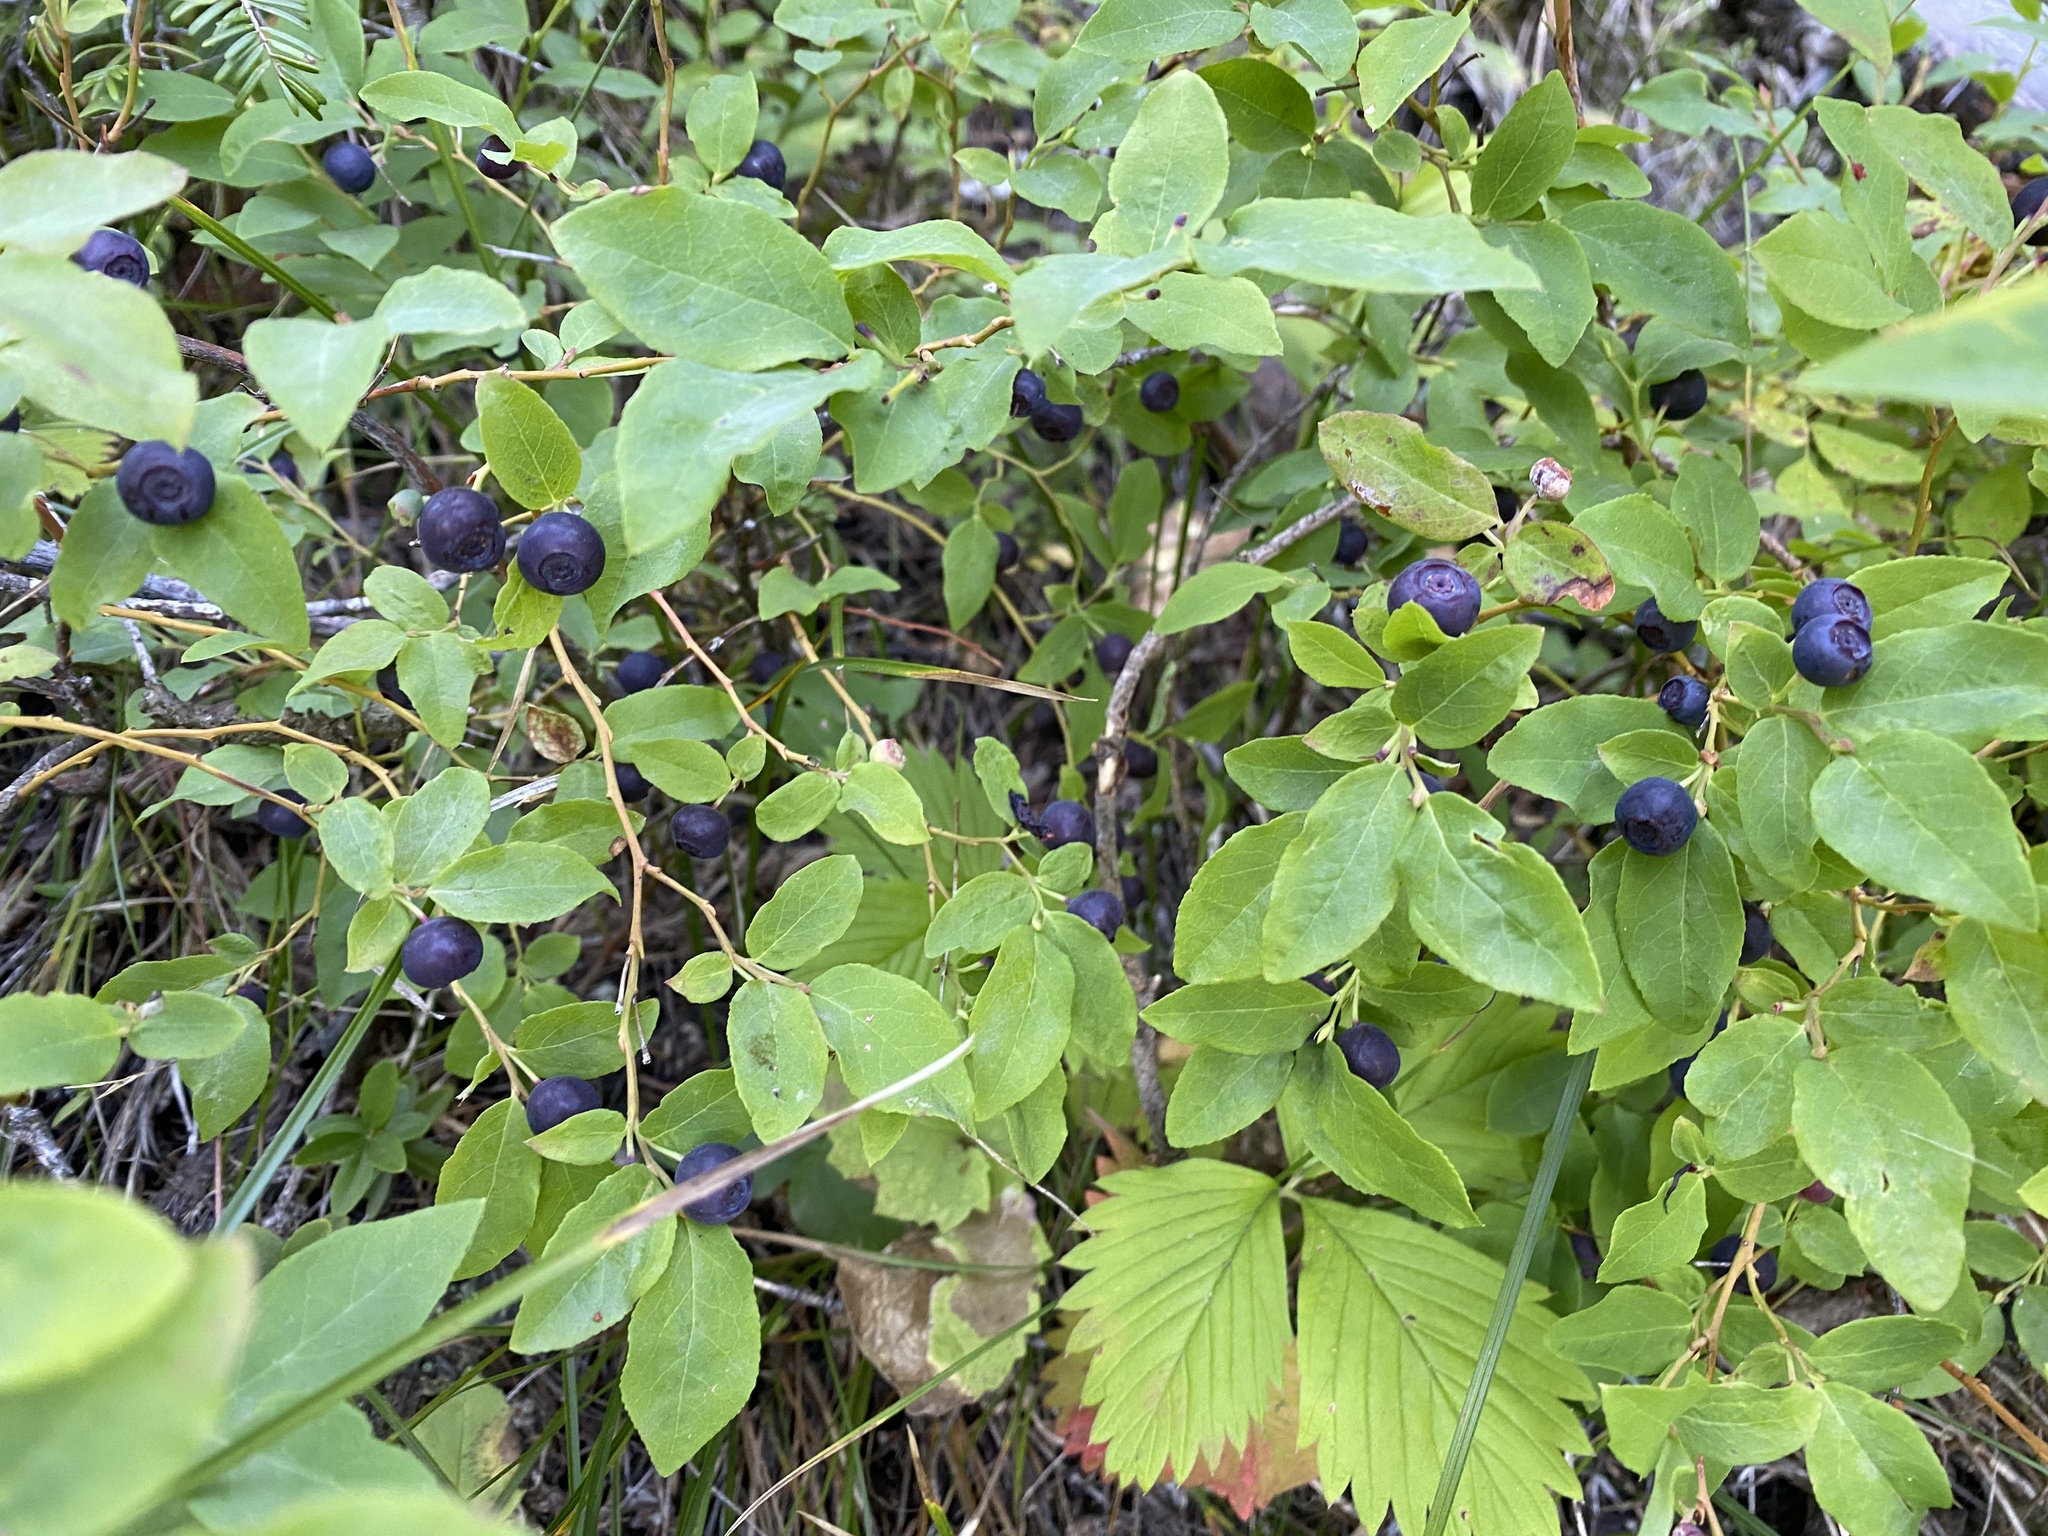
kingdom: Plantae
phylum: Tracheophyta
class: Magnoliopsida
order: Ericales
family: Ericaceae
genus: Vaccinium
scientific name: Vaccinium membranaceum
